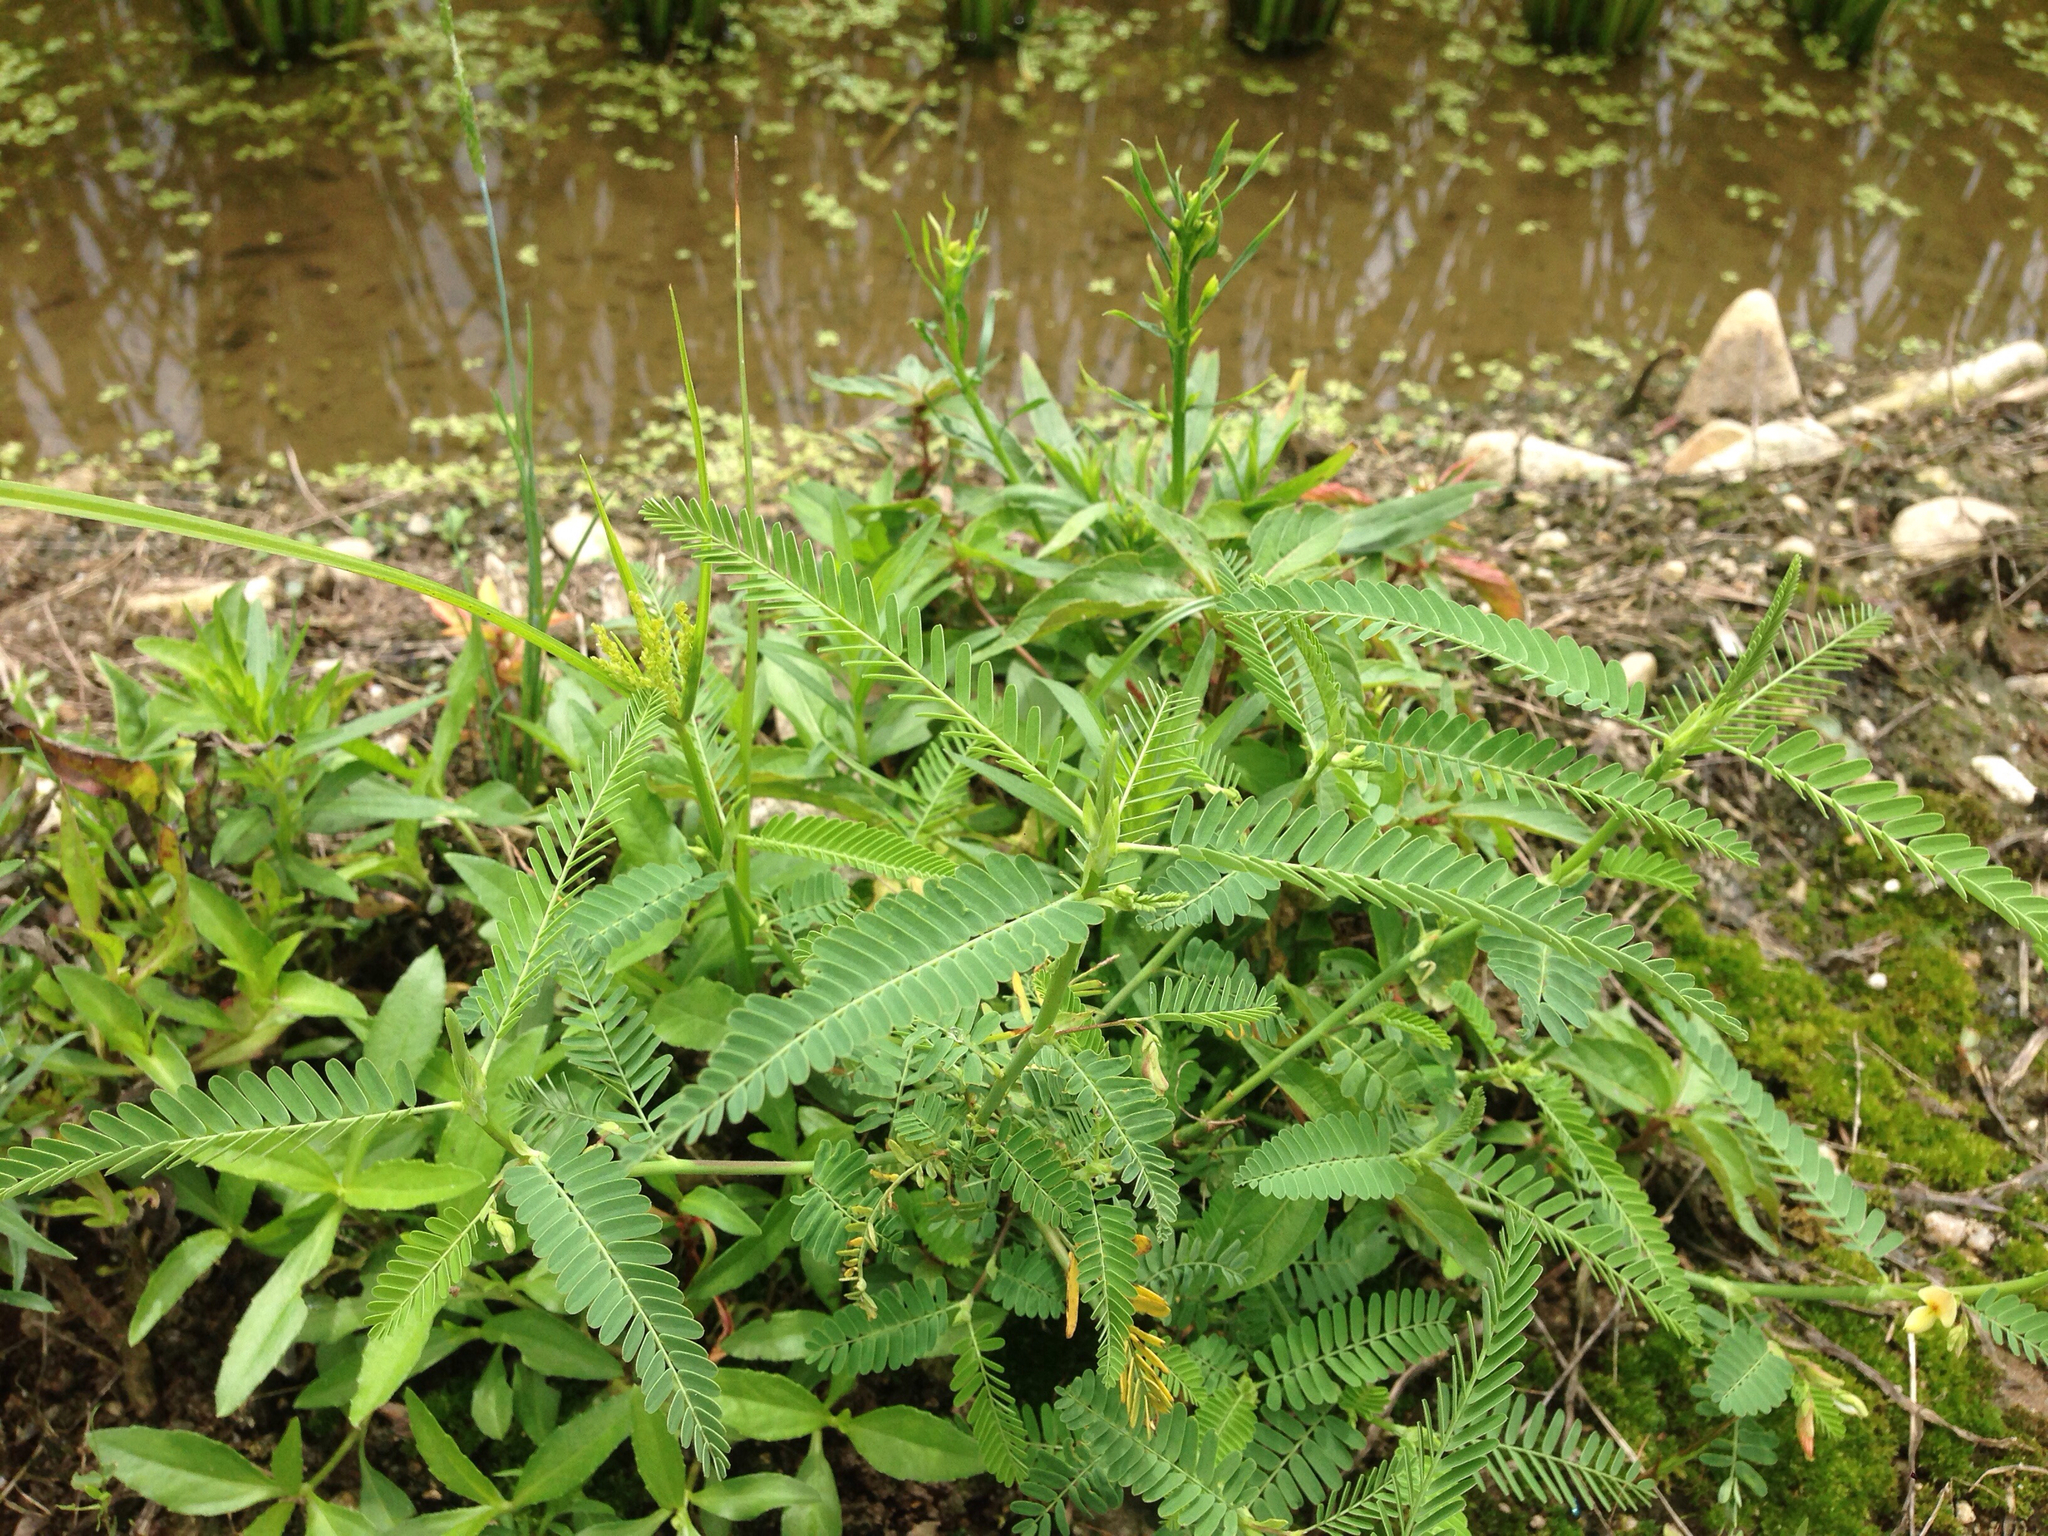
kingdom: Plantae
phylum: Tracheophyta
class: Magnoliopsida
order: Fabales
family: Fabaceae
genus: Aeschynomene
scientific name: Aeschynomene indica
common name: Indian jointvetch
